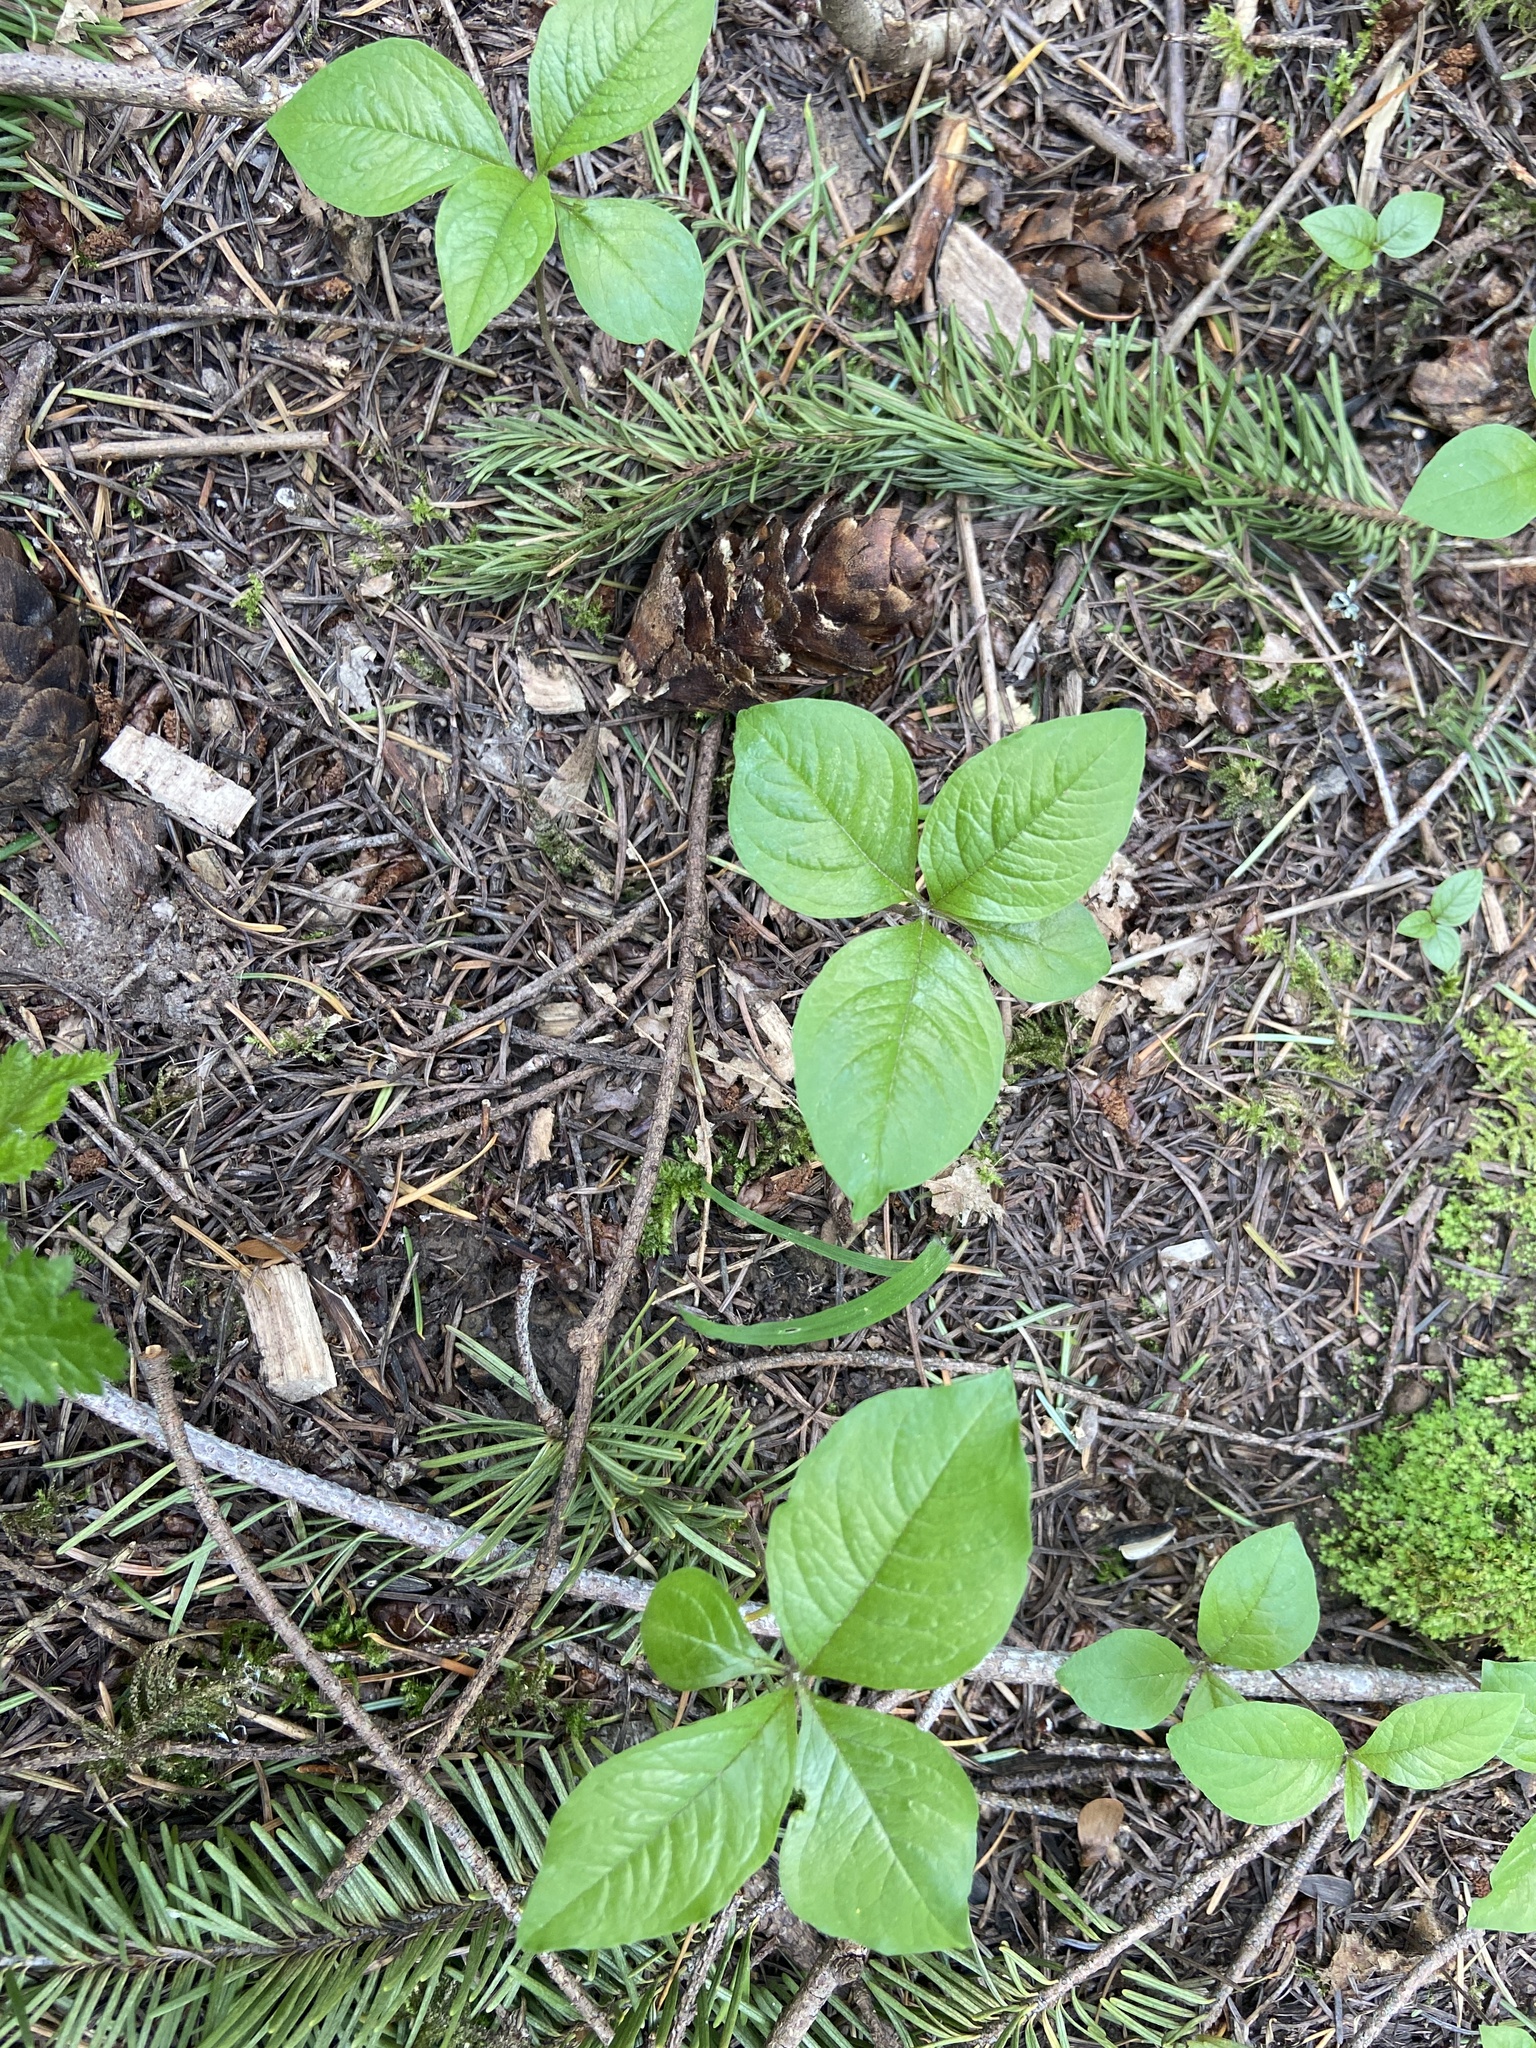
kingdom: Plantae
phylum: Tracheophyta
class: Magnoliopsida
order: Ericales
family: Primulaceae
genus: Lysimachia
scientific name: Lysimachia latifolia
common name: Pacific starflower
